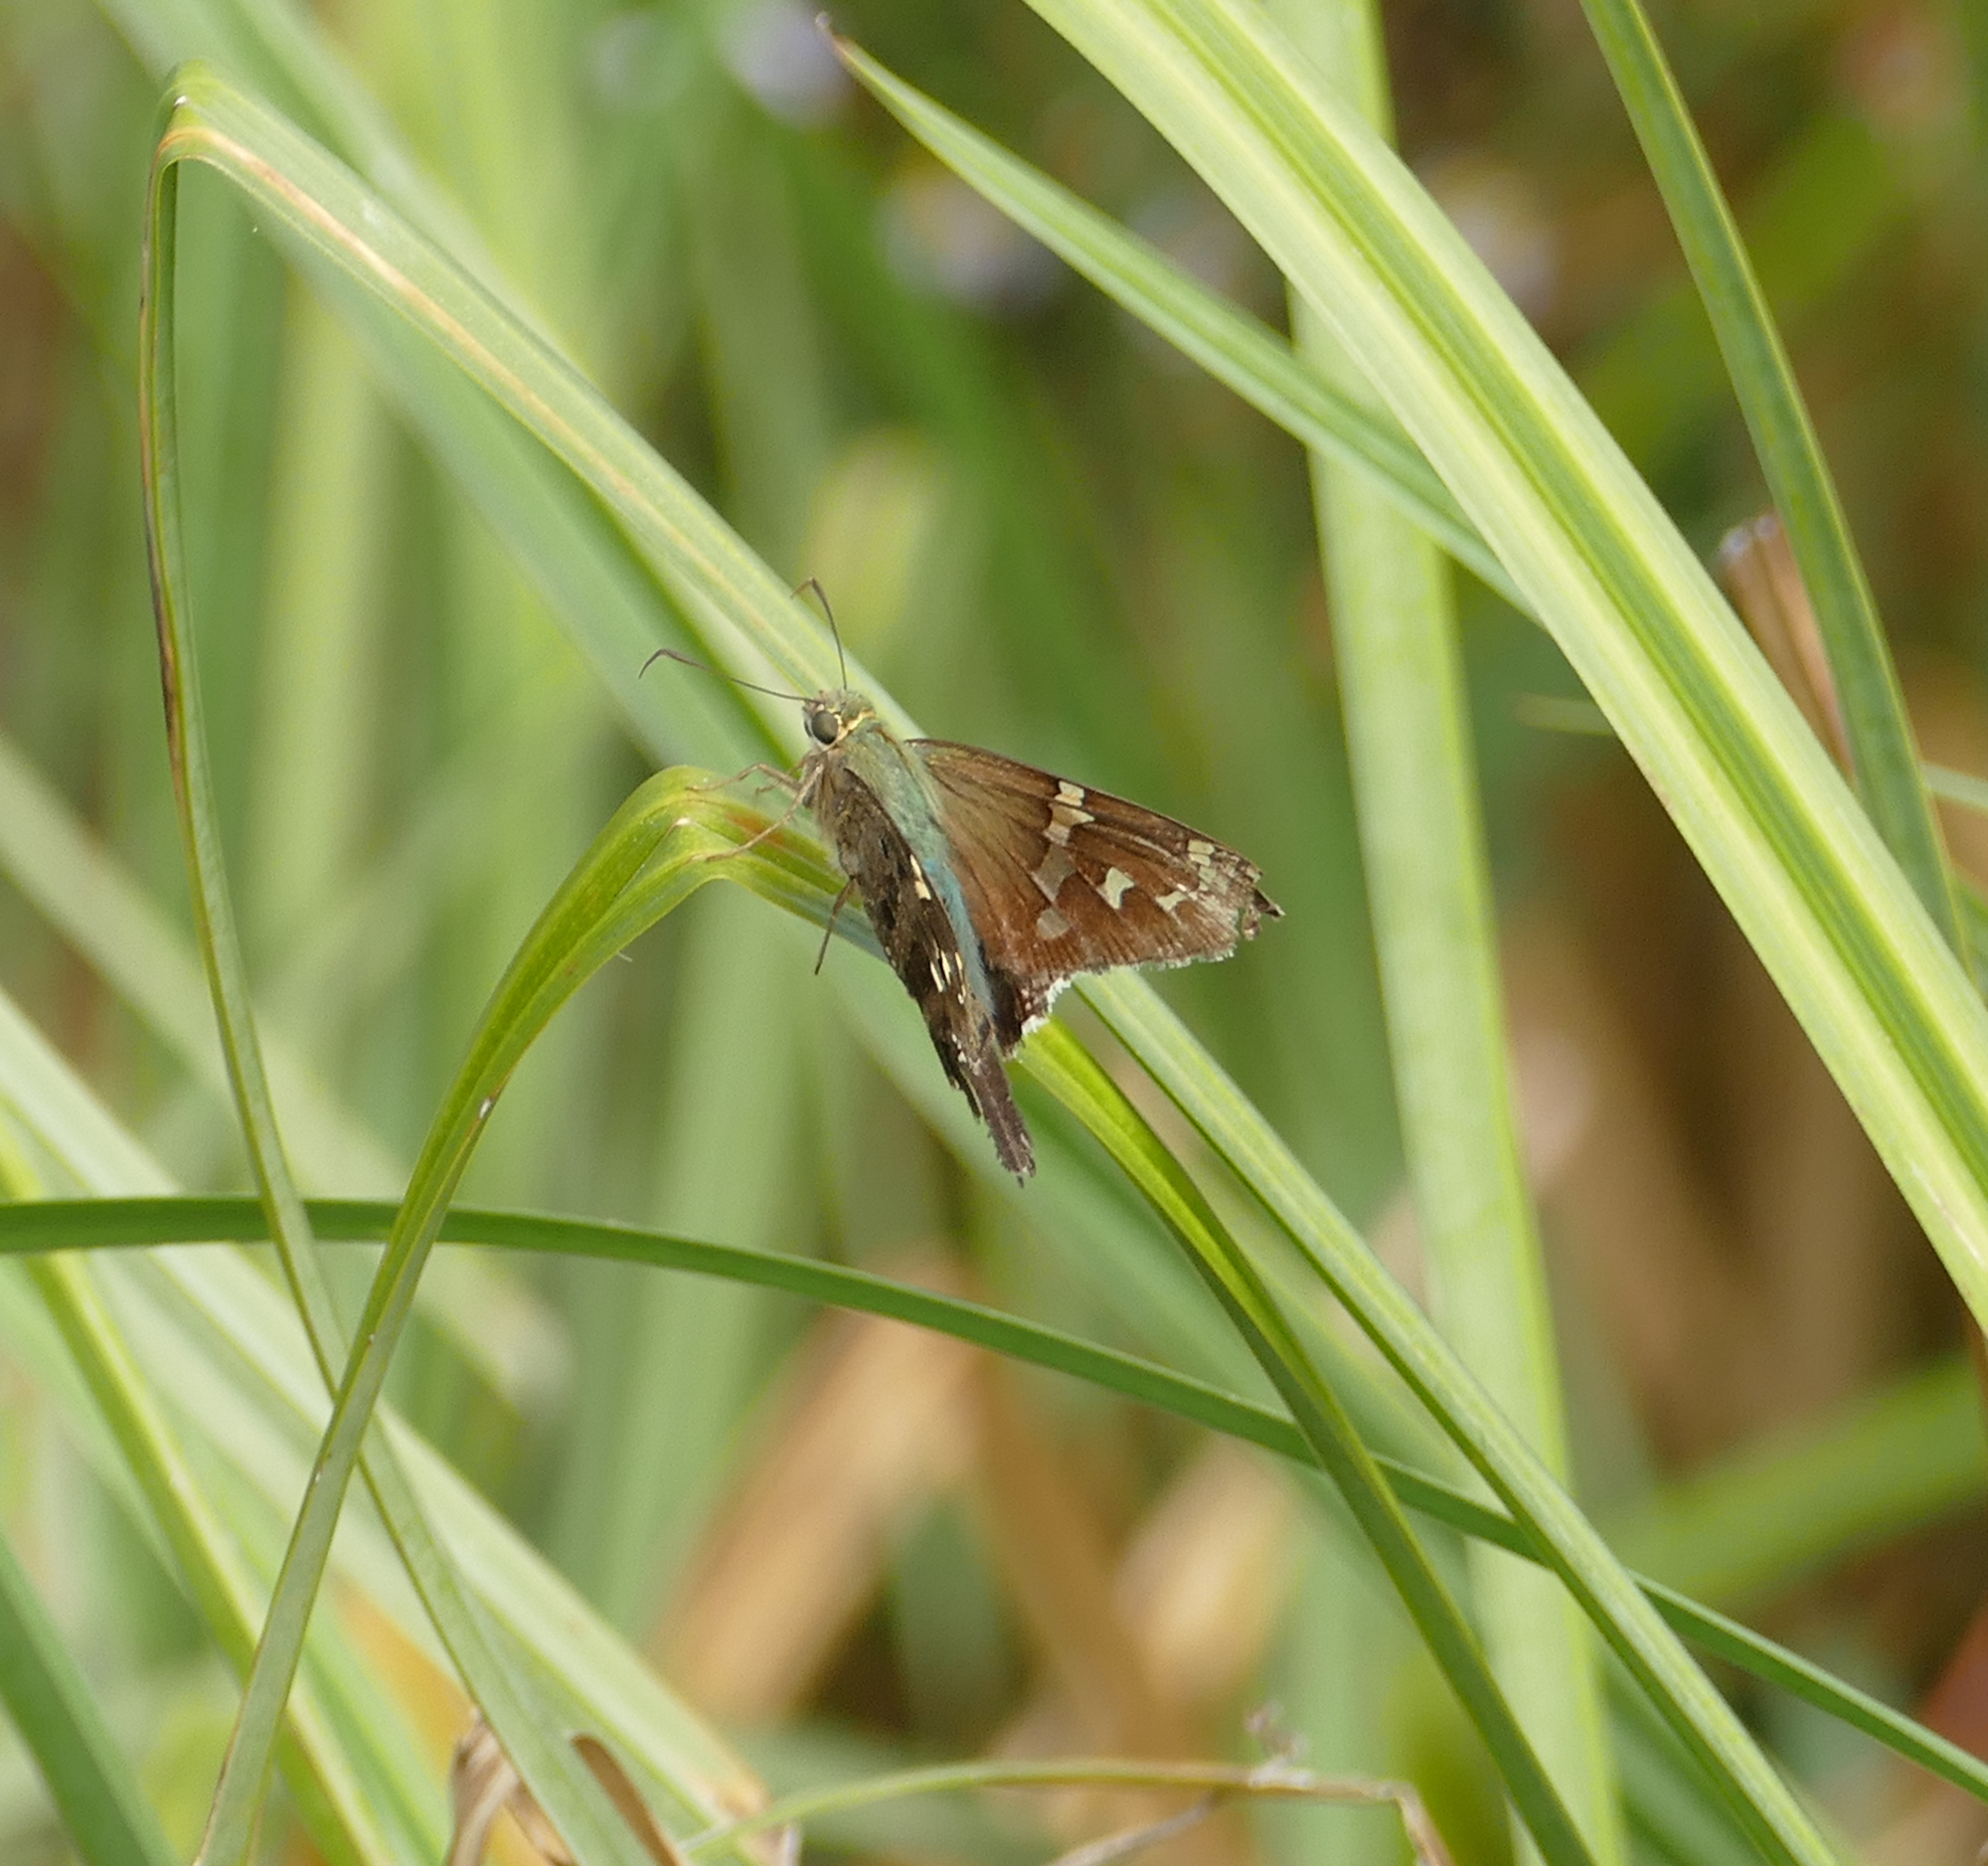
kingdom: Animalia
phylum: Arthropoda
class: Insecta
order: Lepidoptera
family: Hesperiidae
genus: Urbanus
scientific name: Urbanus proteus
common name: Long-tailed skipper
